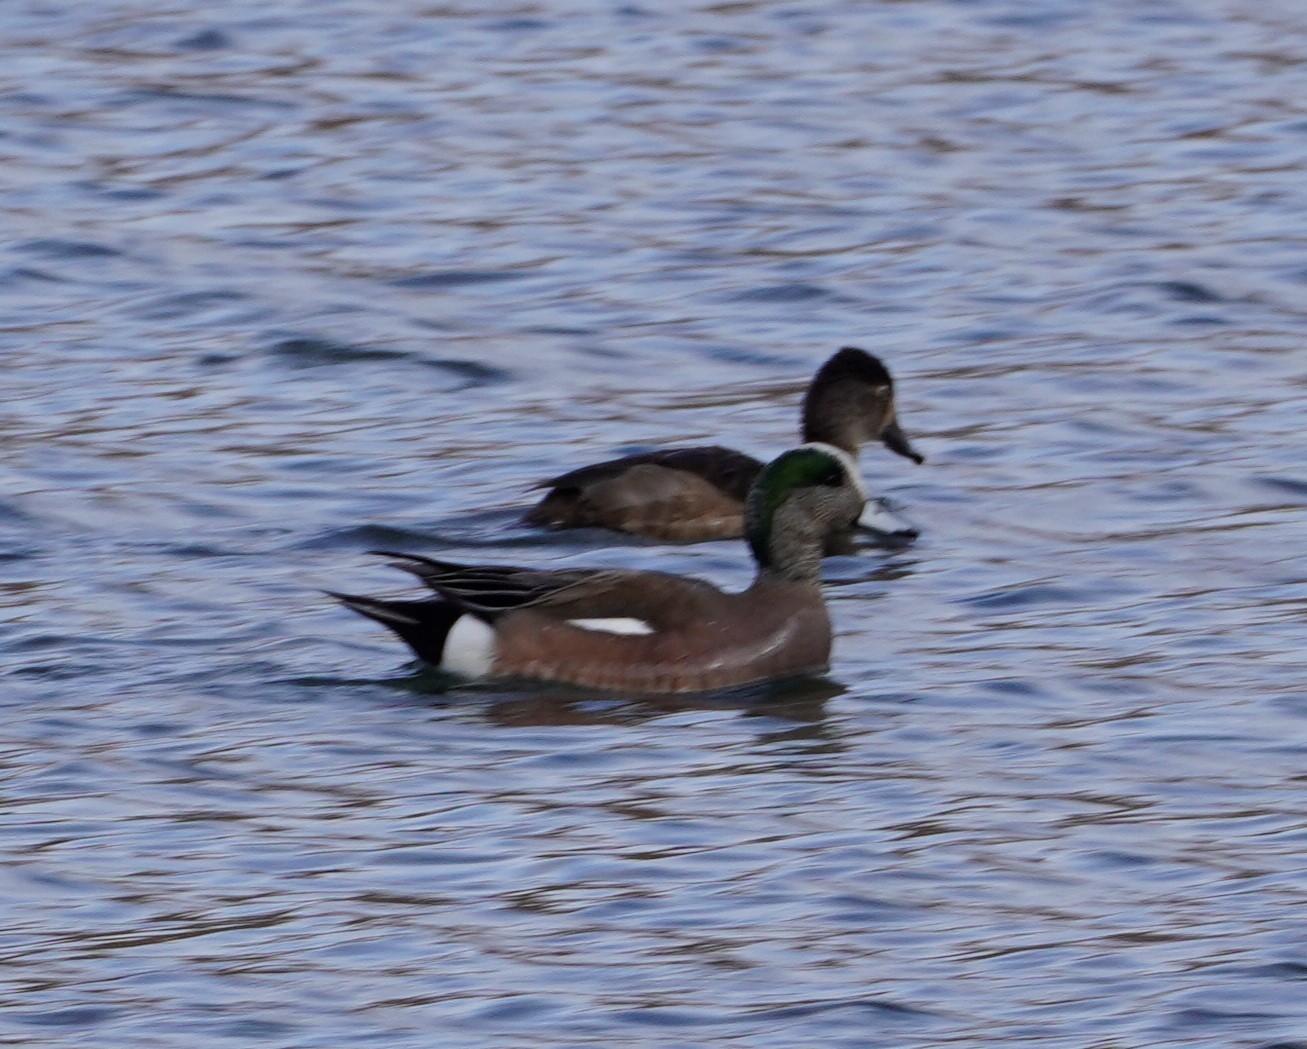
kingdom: Animalia
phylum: Chordata
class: Aves
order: Anseriformes
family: Anatidae
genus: Mareca
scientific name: Mareca americana
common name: American wigeon
